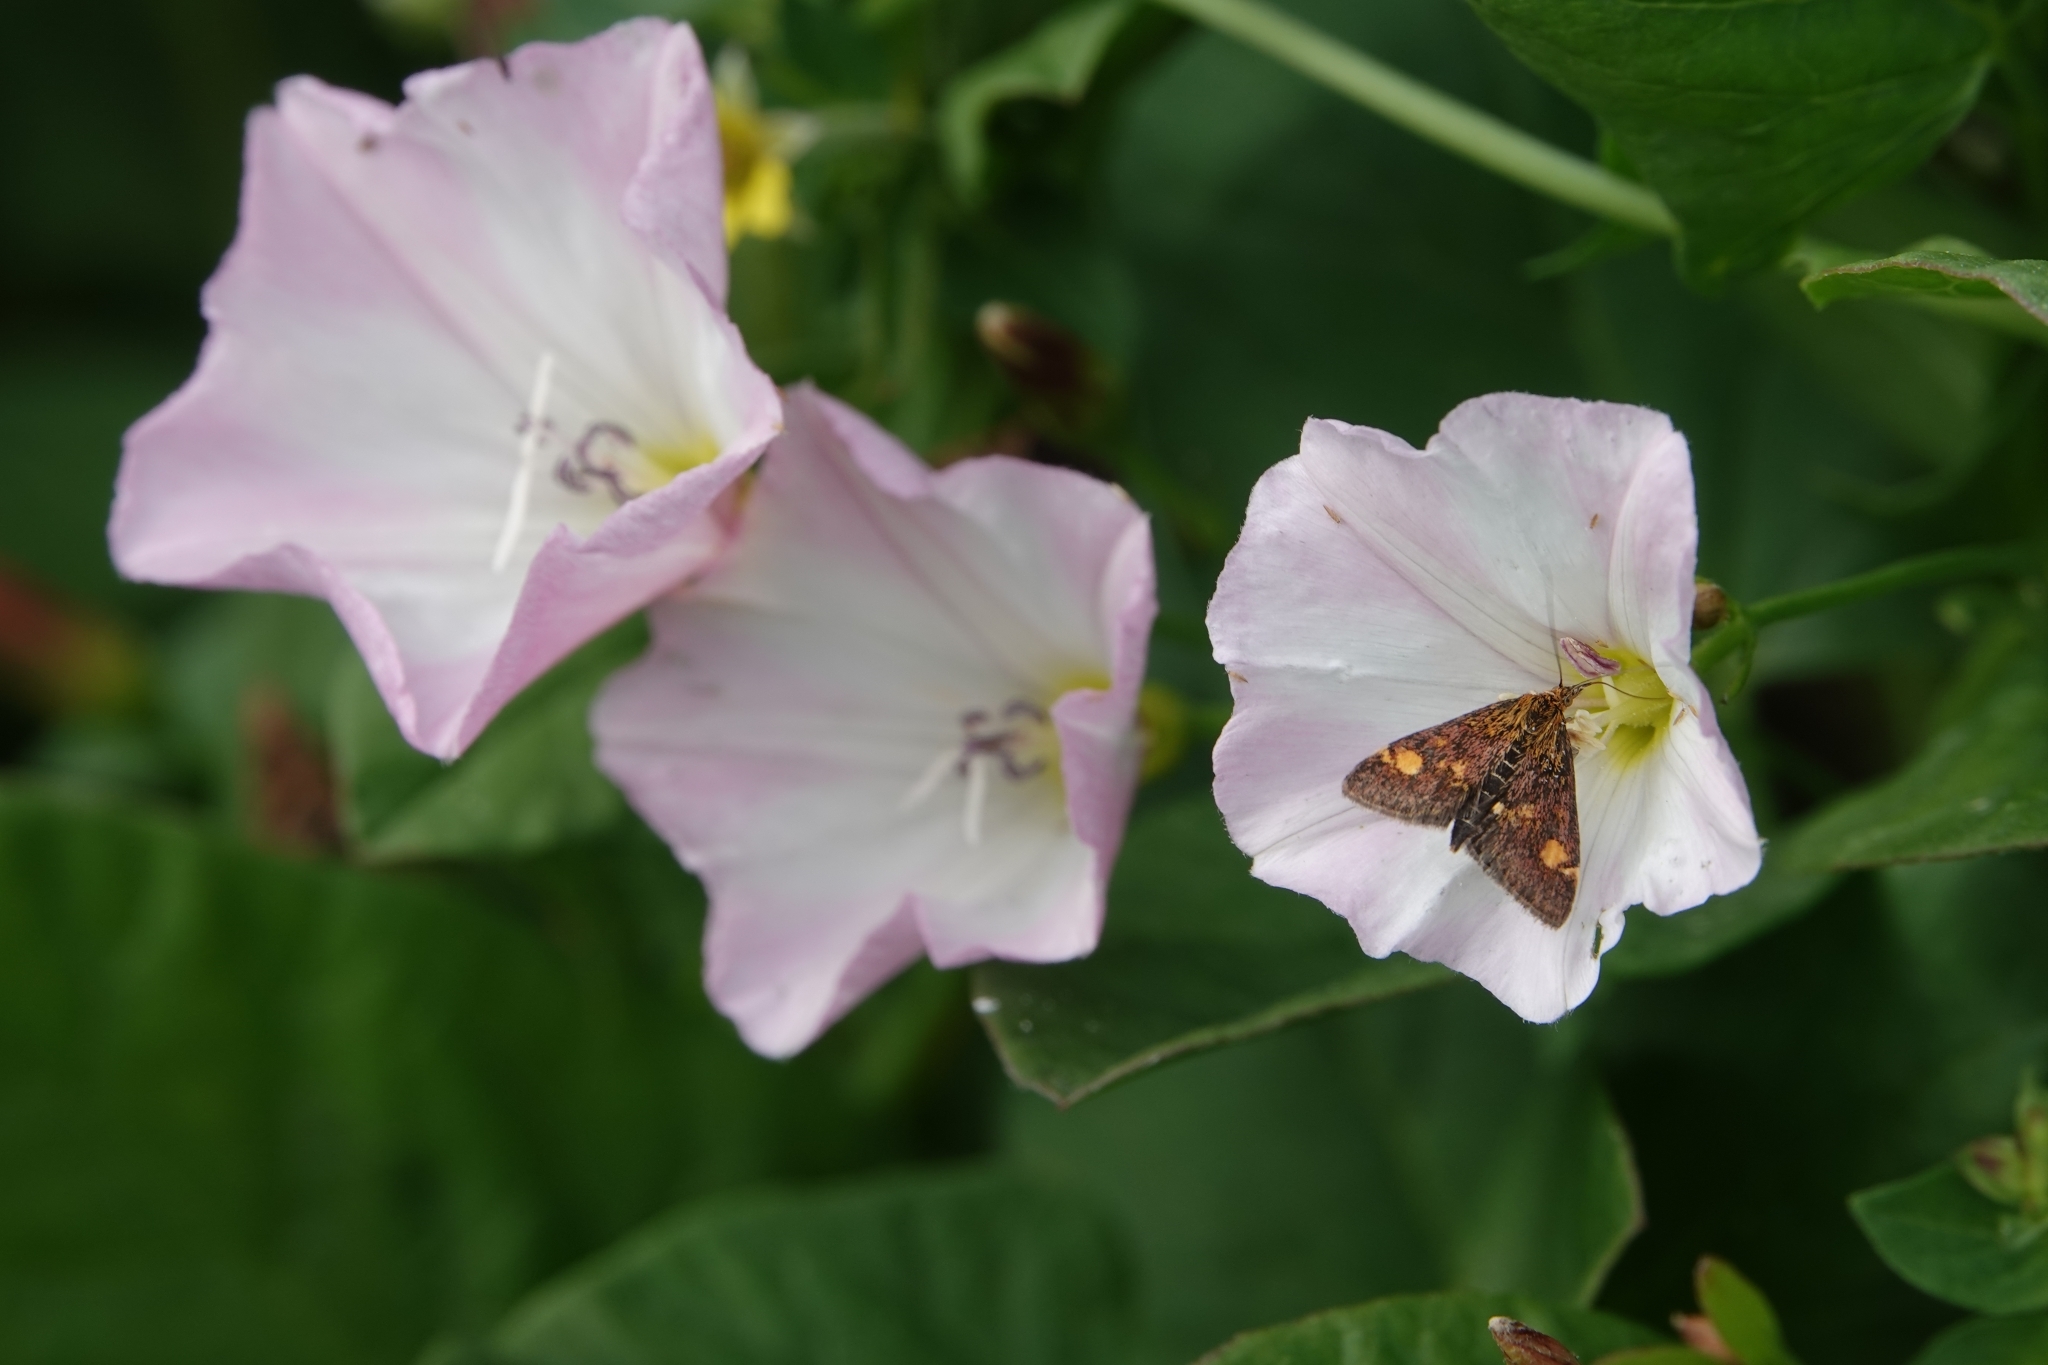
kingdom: Animalia
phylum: Arthropoda
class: Insecta
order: Lepidoptera
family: Crambidae
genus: Pyrausta
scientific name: Pyrausta aurata
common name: Small purple & gold
